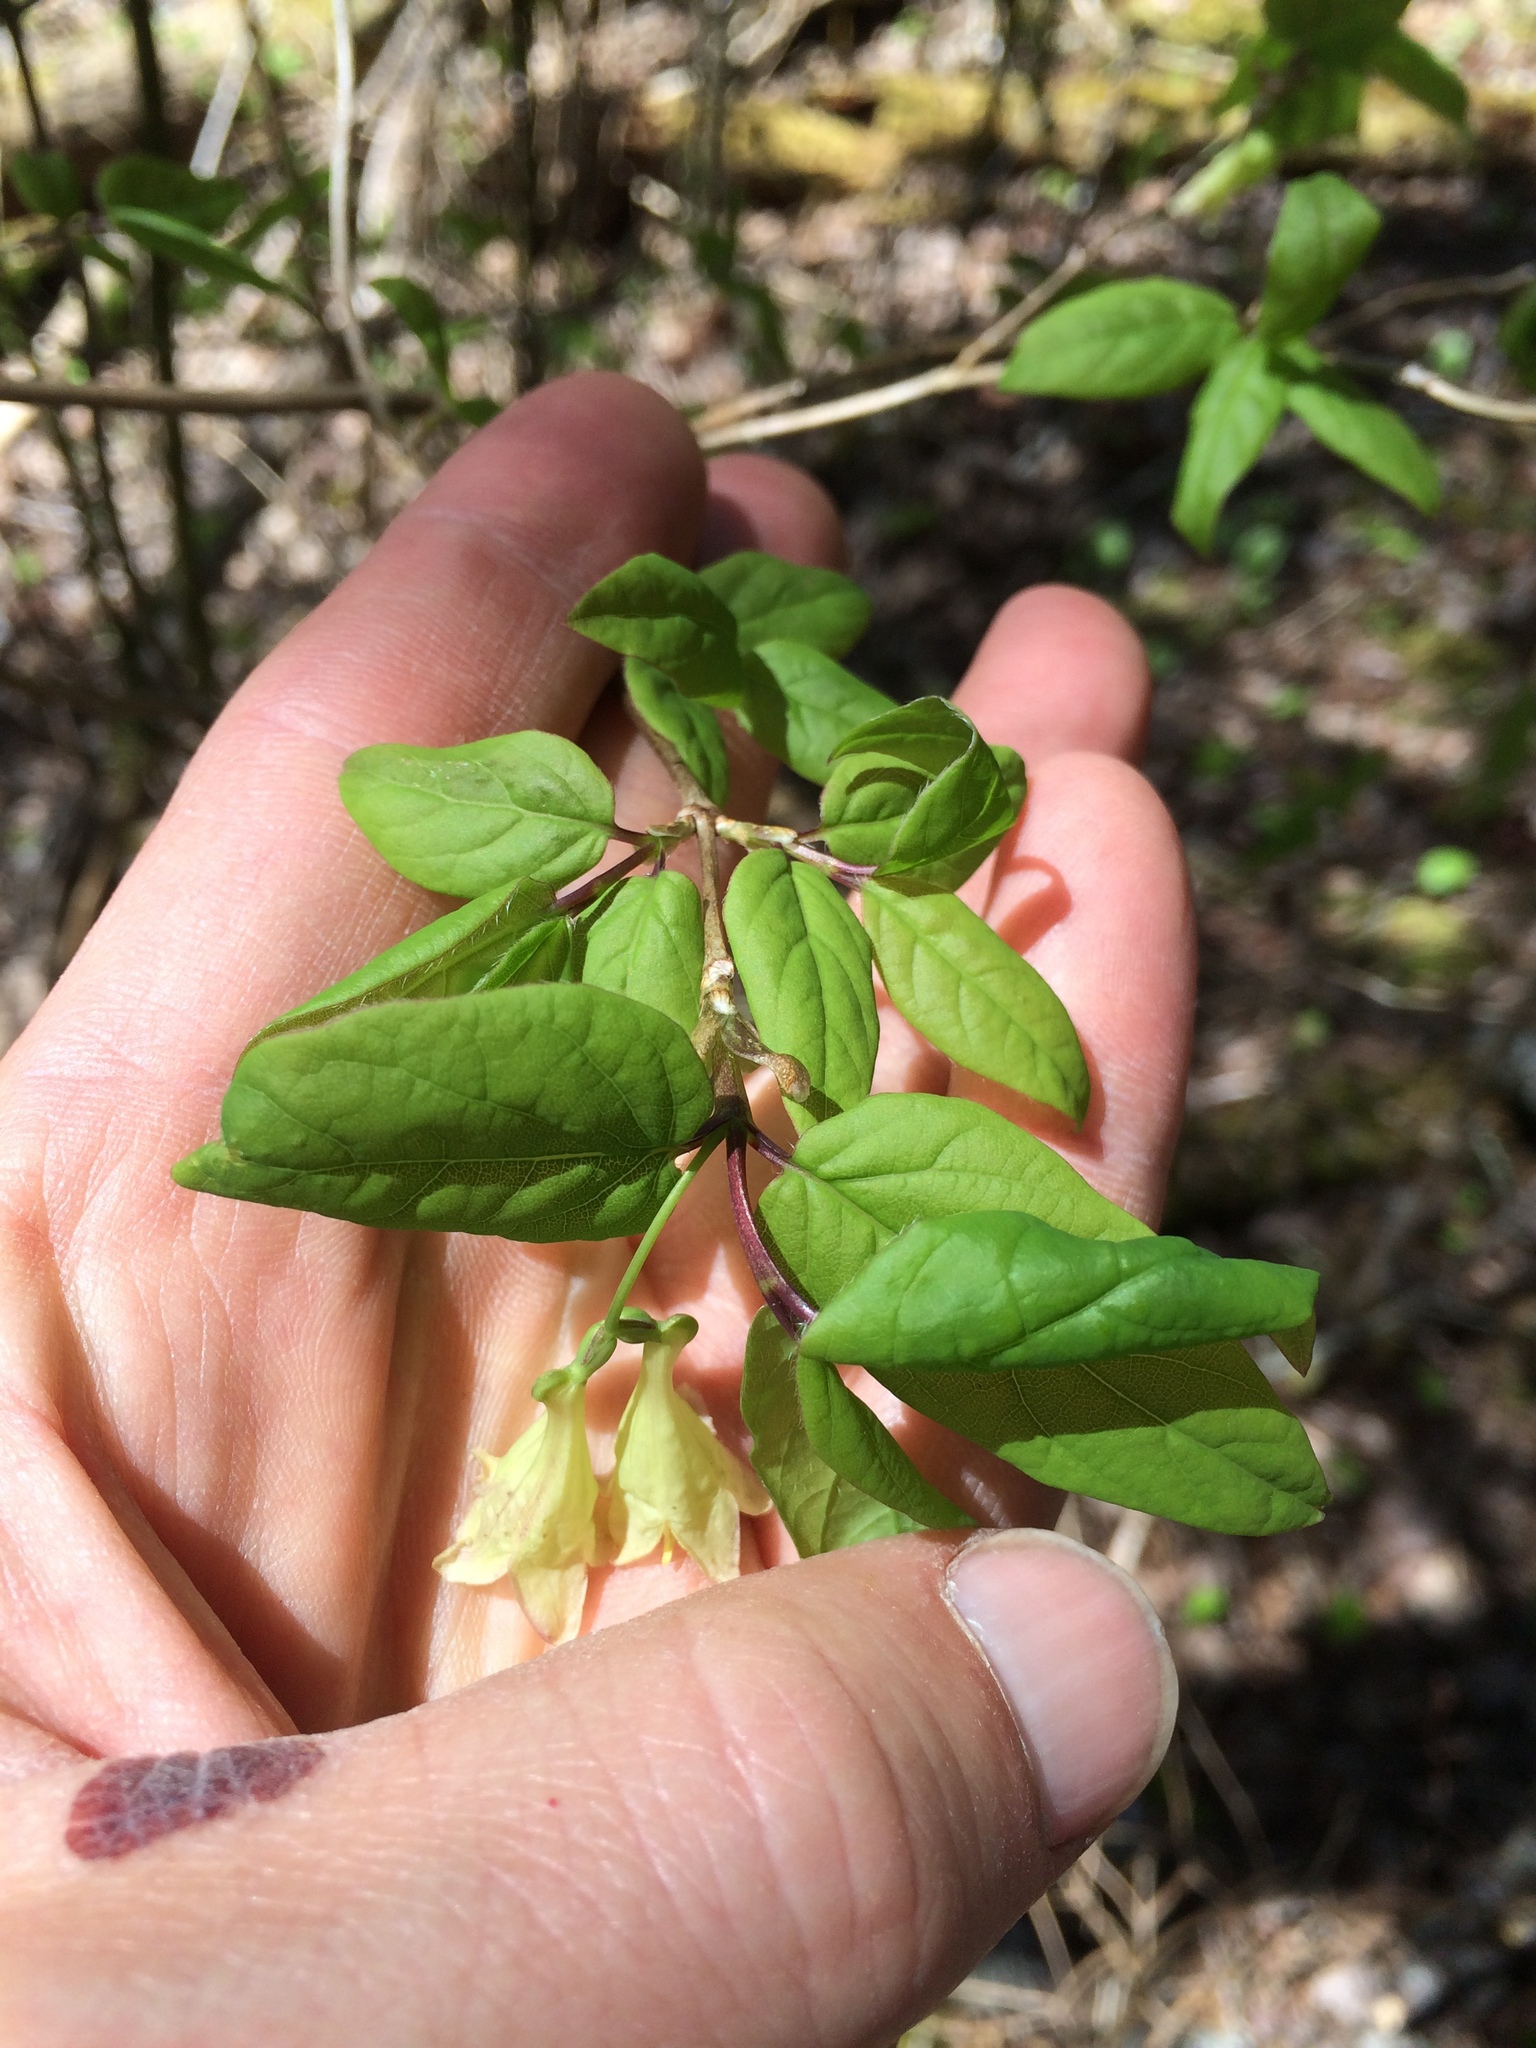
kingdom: Plantae
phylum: Tracheophyta
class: Magnoliopsida
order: Dipsacales
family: Caprifoliaceae
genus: Lonicera
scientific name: Lonicera canadensis
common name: American fly-honeysuckle
